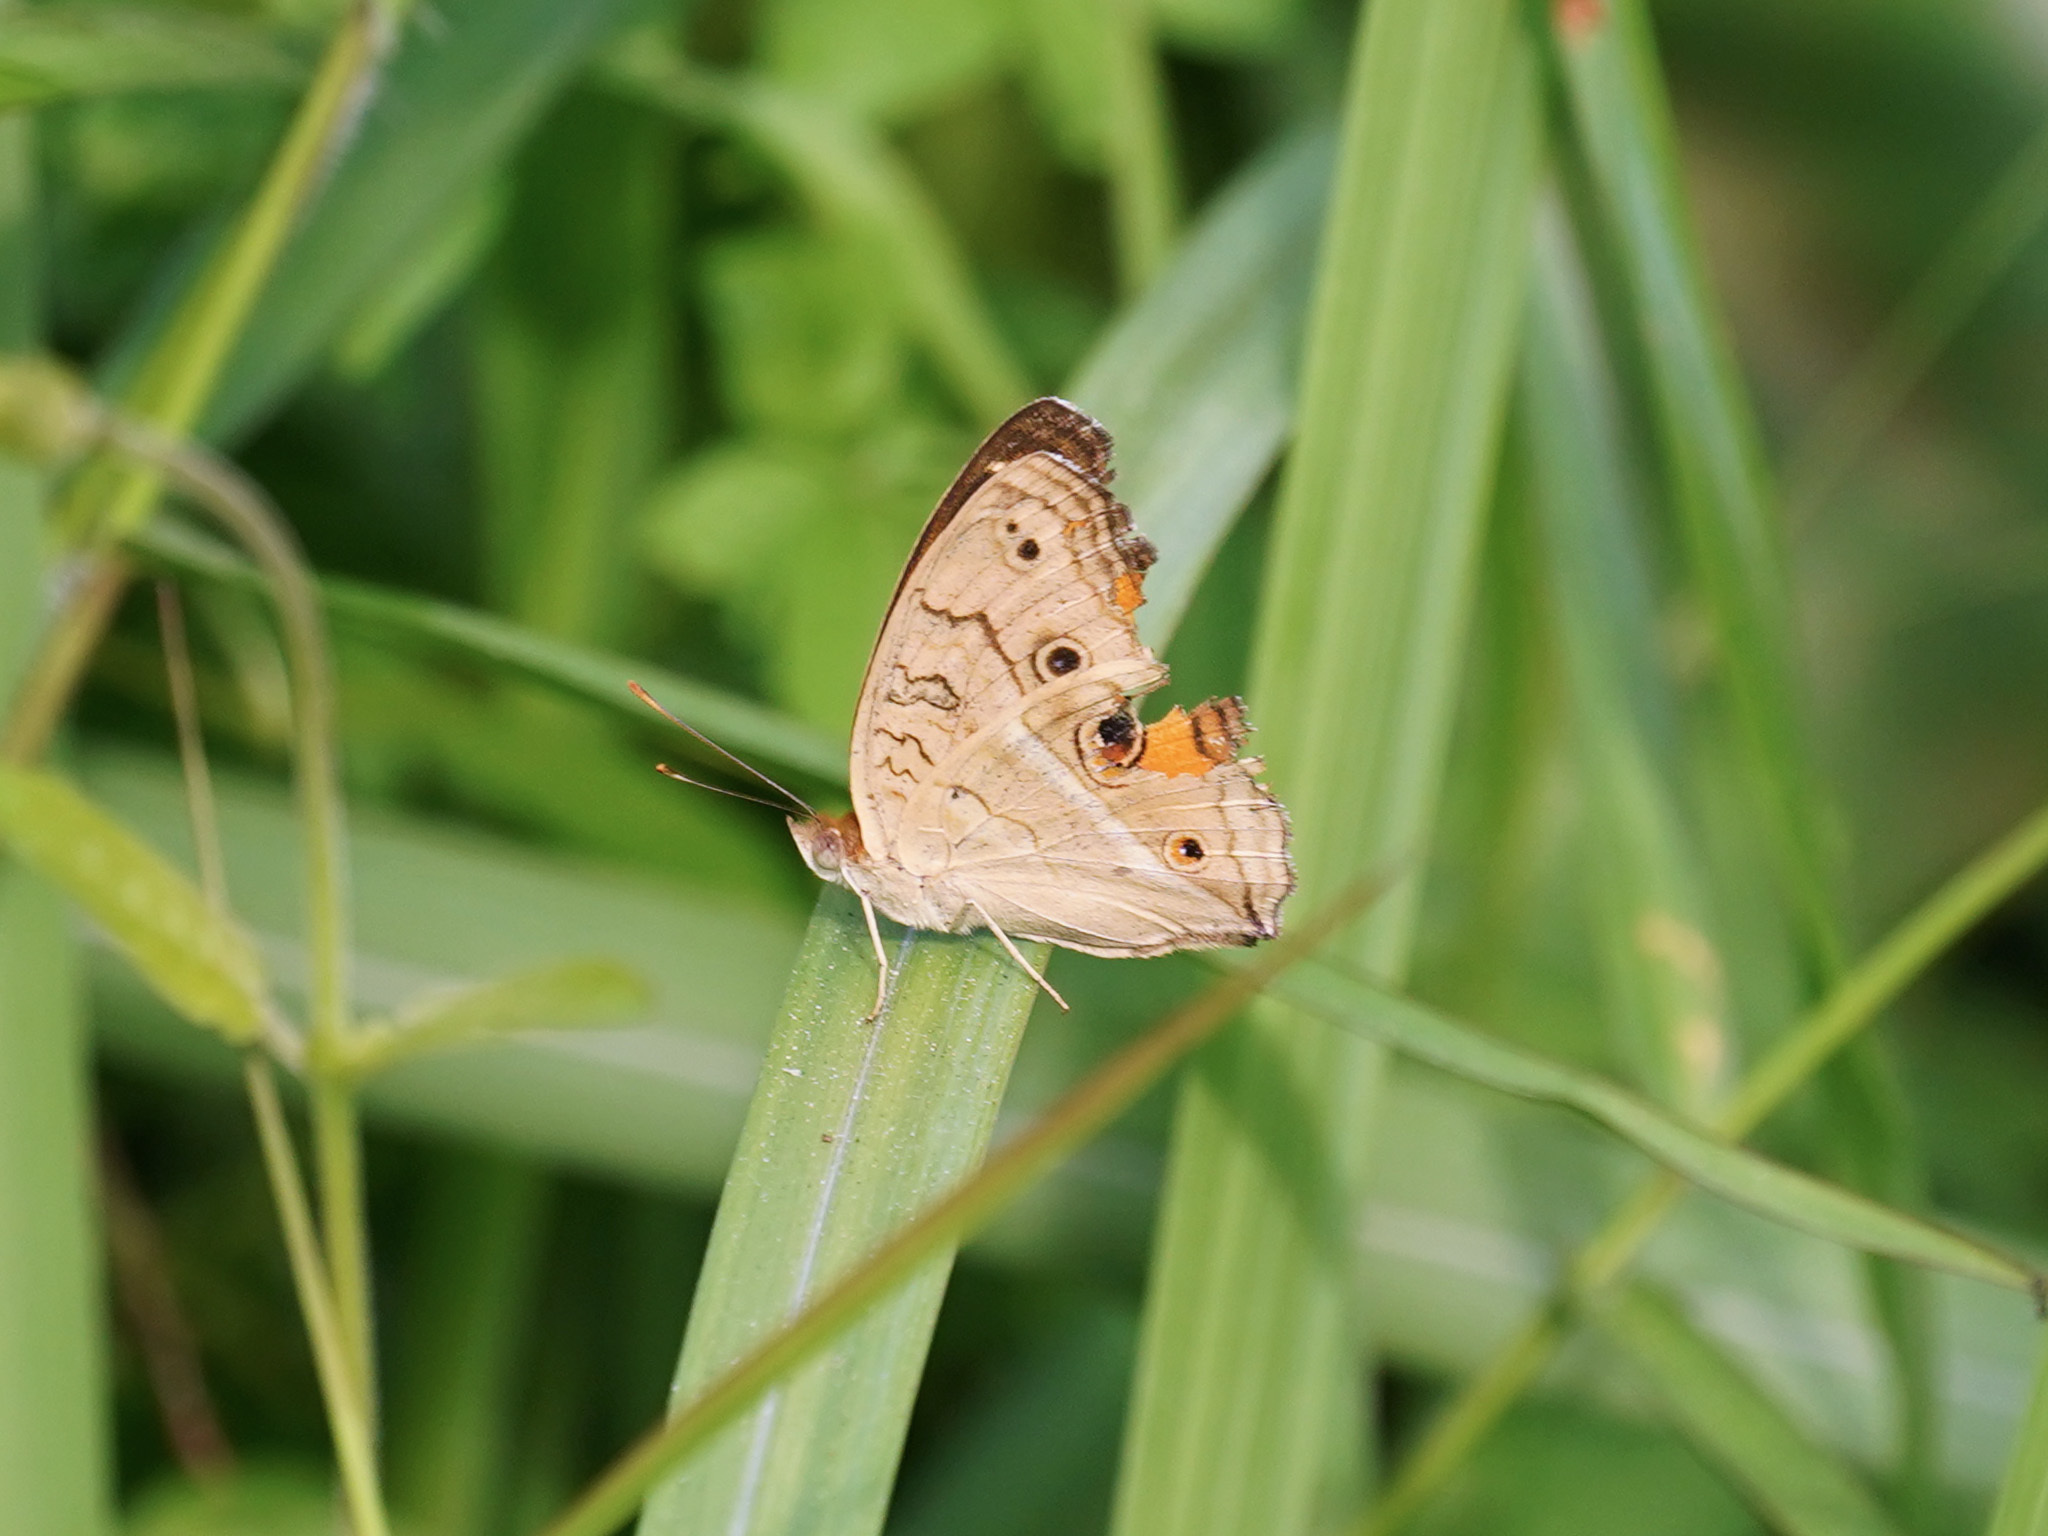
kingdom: Animalia
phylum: Arthropoda
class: Insecta
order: Lepidoptera
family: Nymphalidae
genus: Junonia
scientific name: Junonia almana
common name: Peacock pansy
